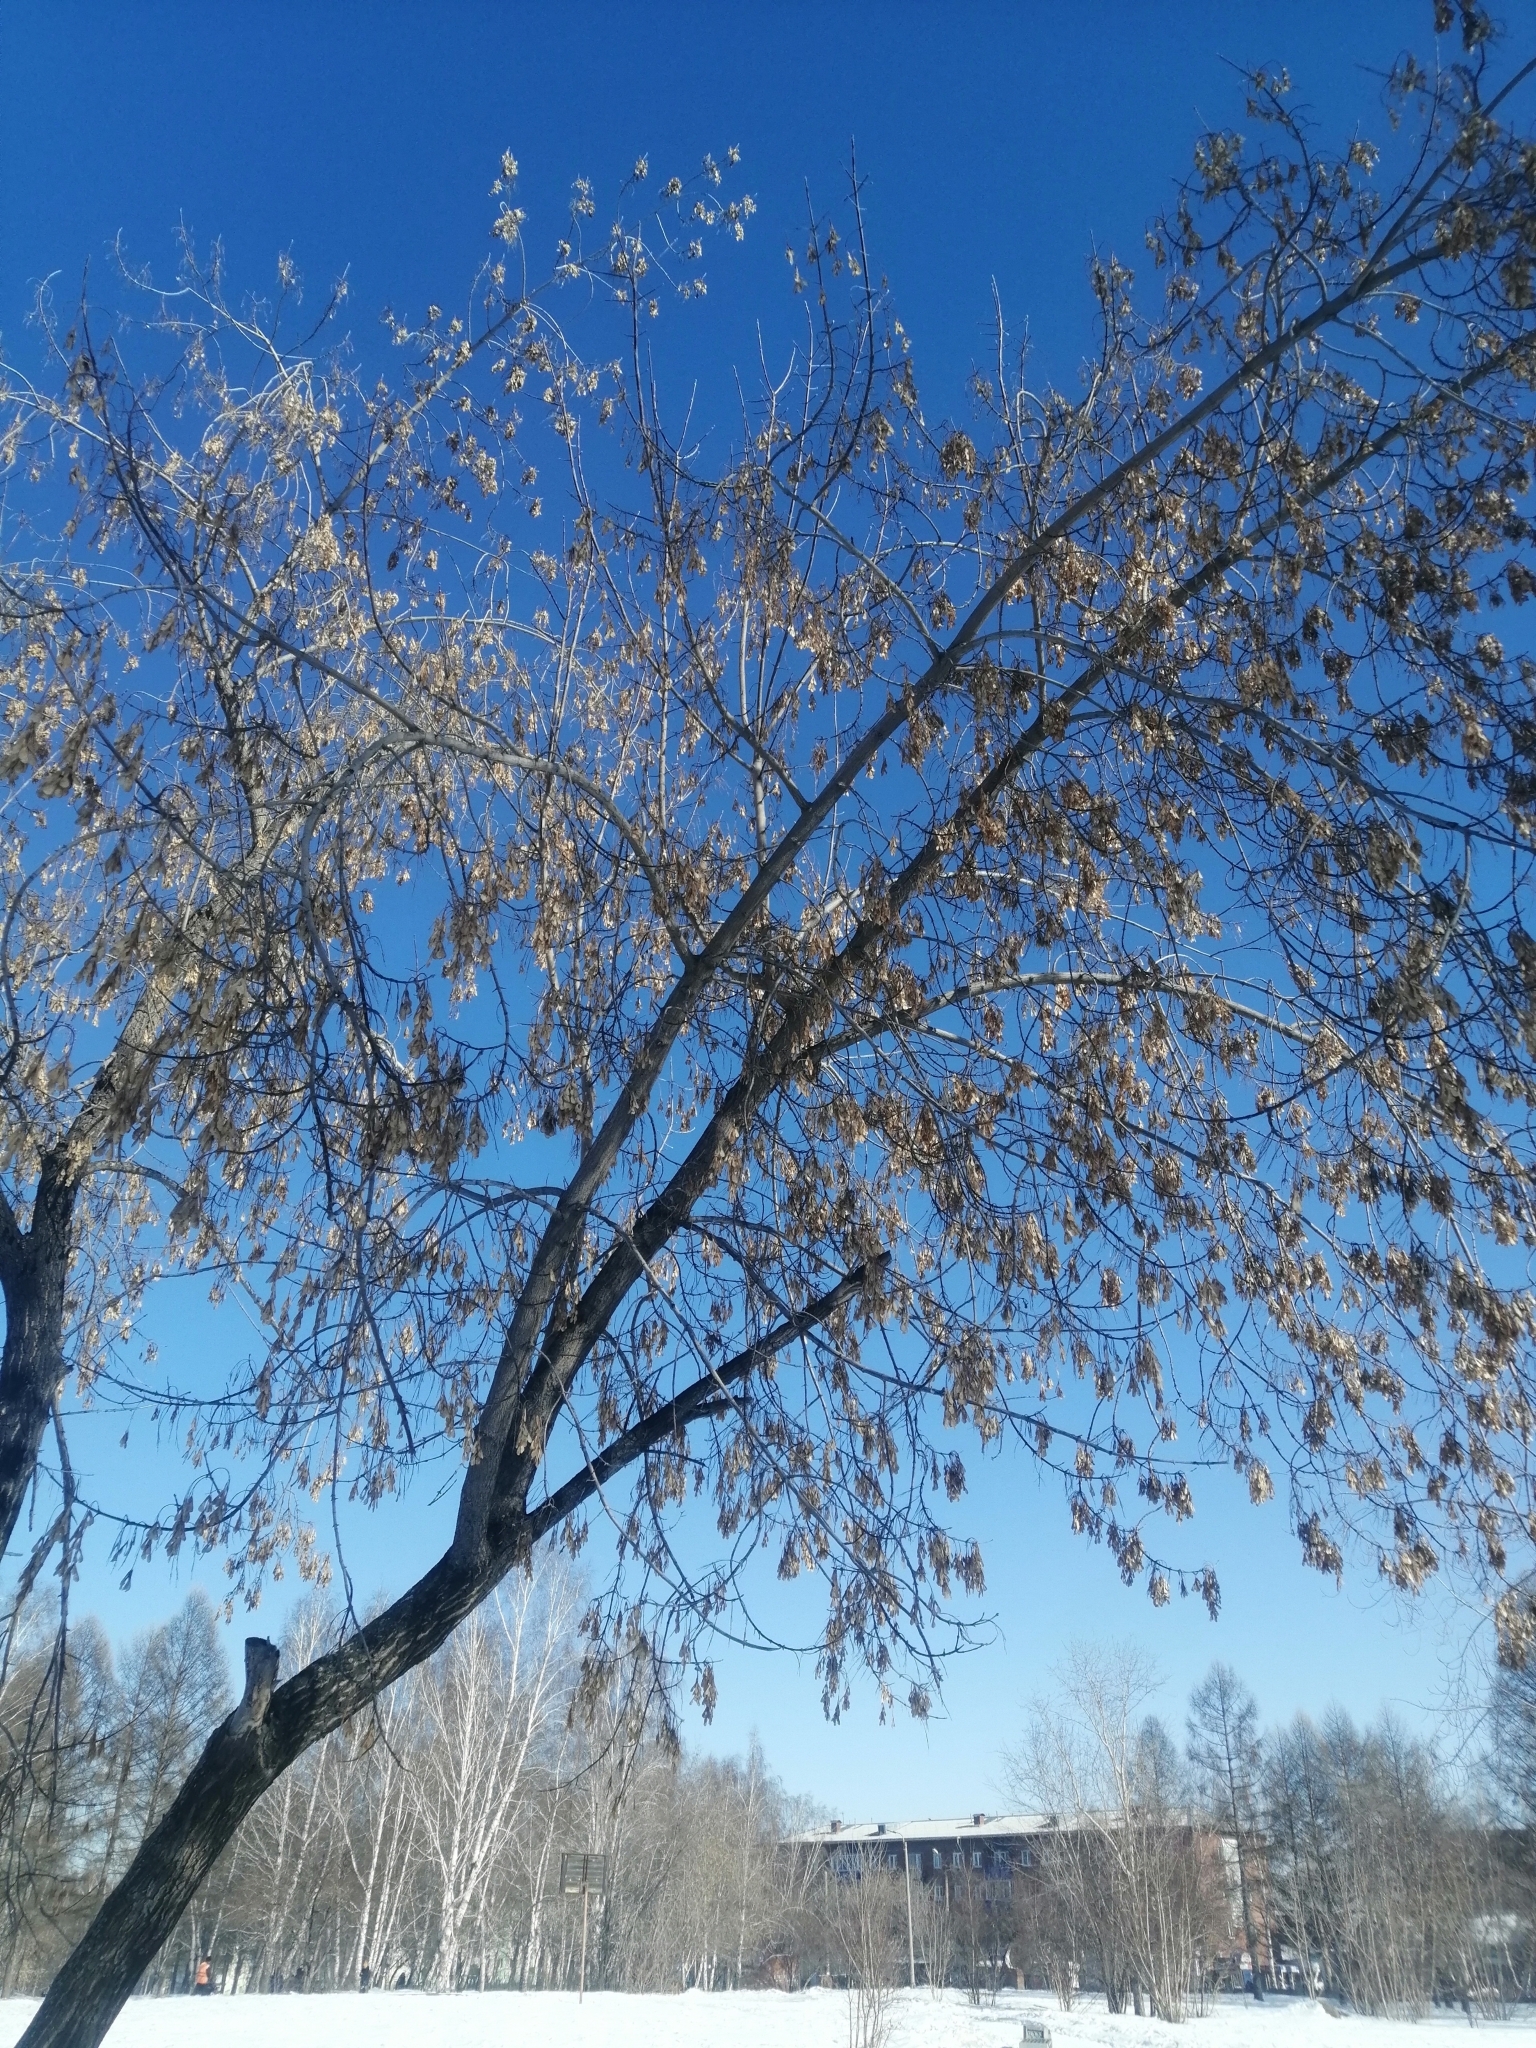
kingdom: Plantae
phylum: Tracheophyta
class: Magnoliopsida
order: Sapindales
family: Sapindaceae
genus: Acer
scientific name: Acer negundo
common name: Ashleaf maple
